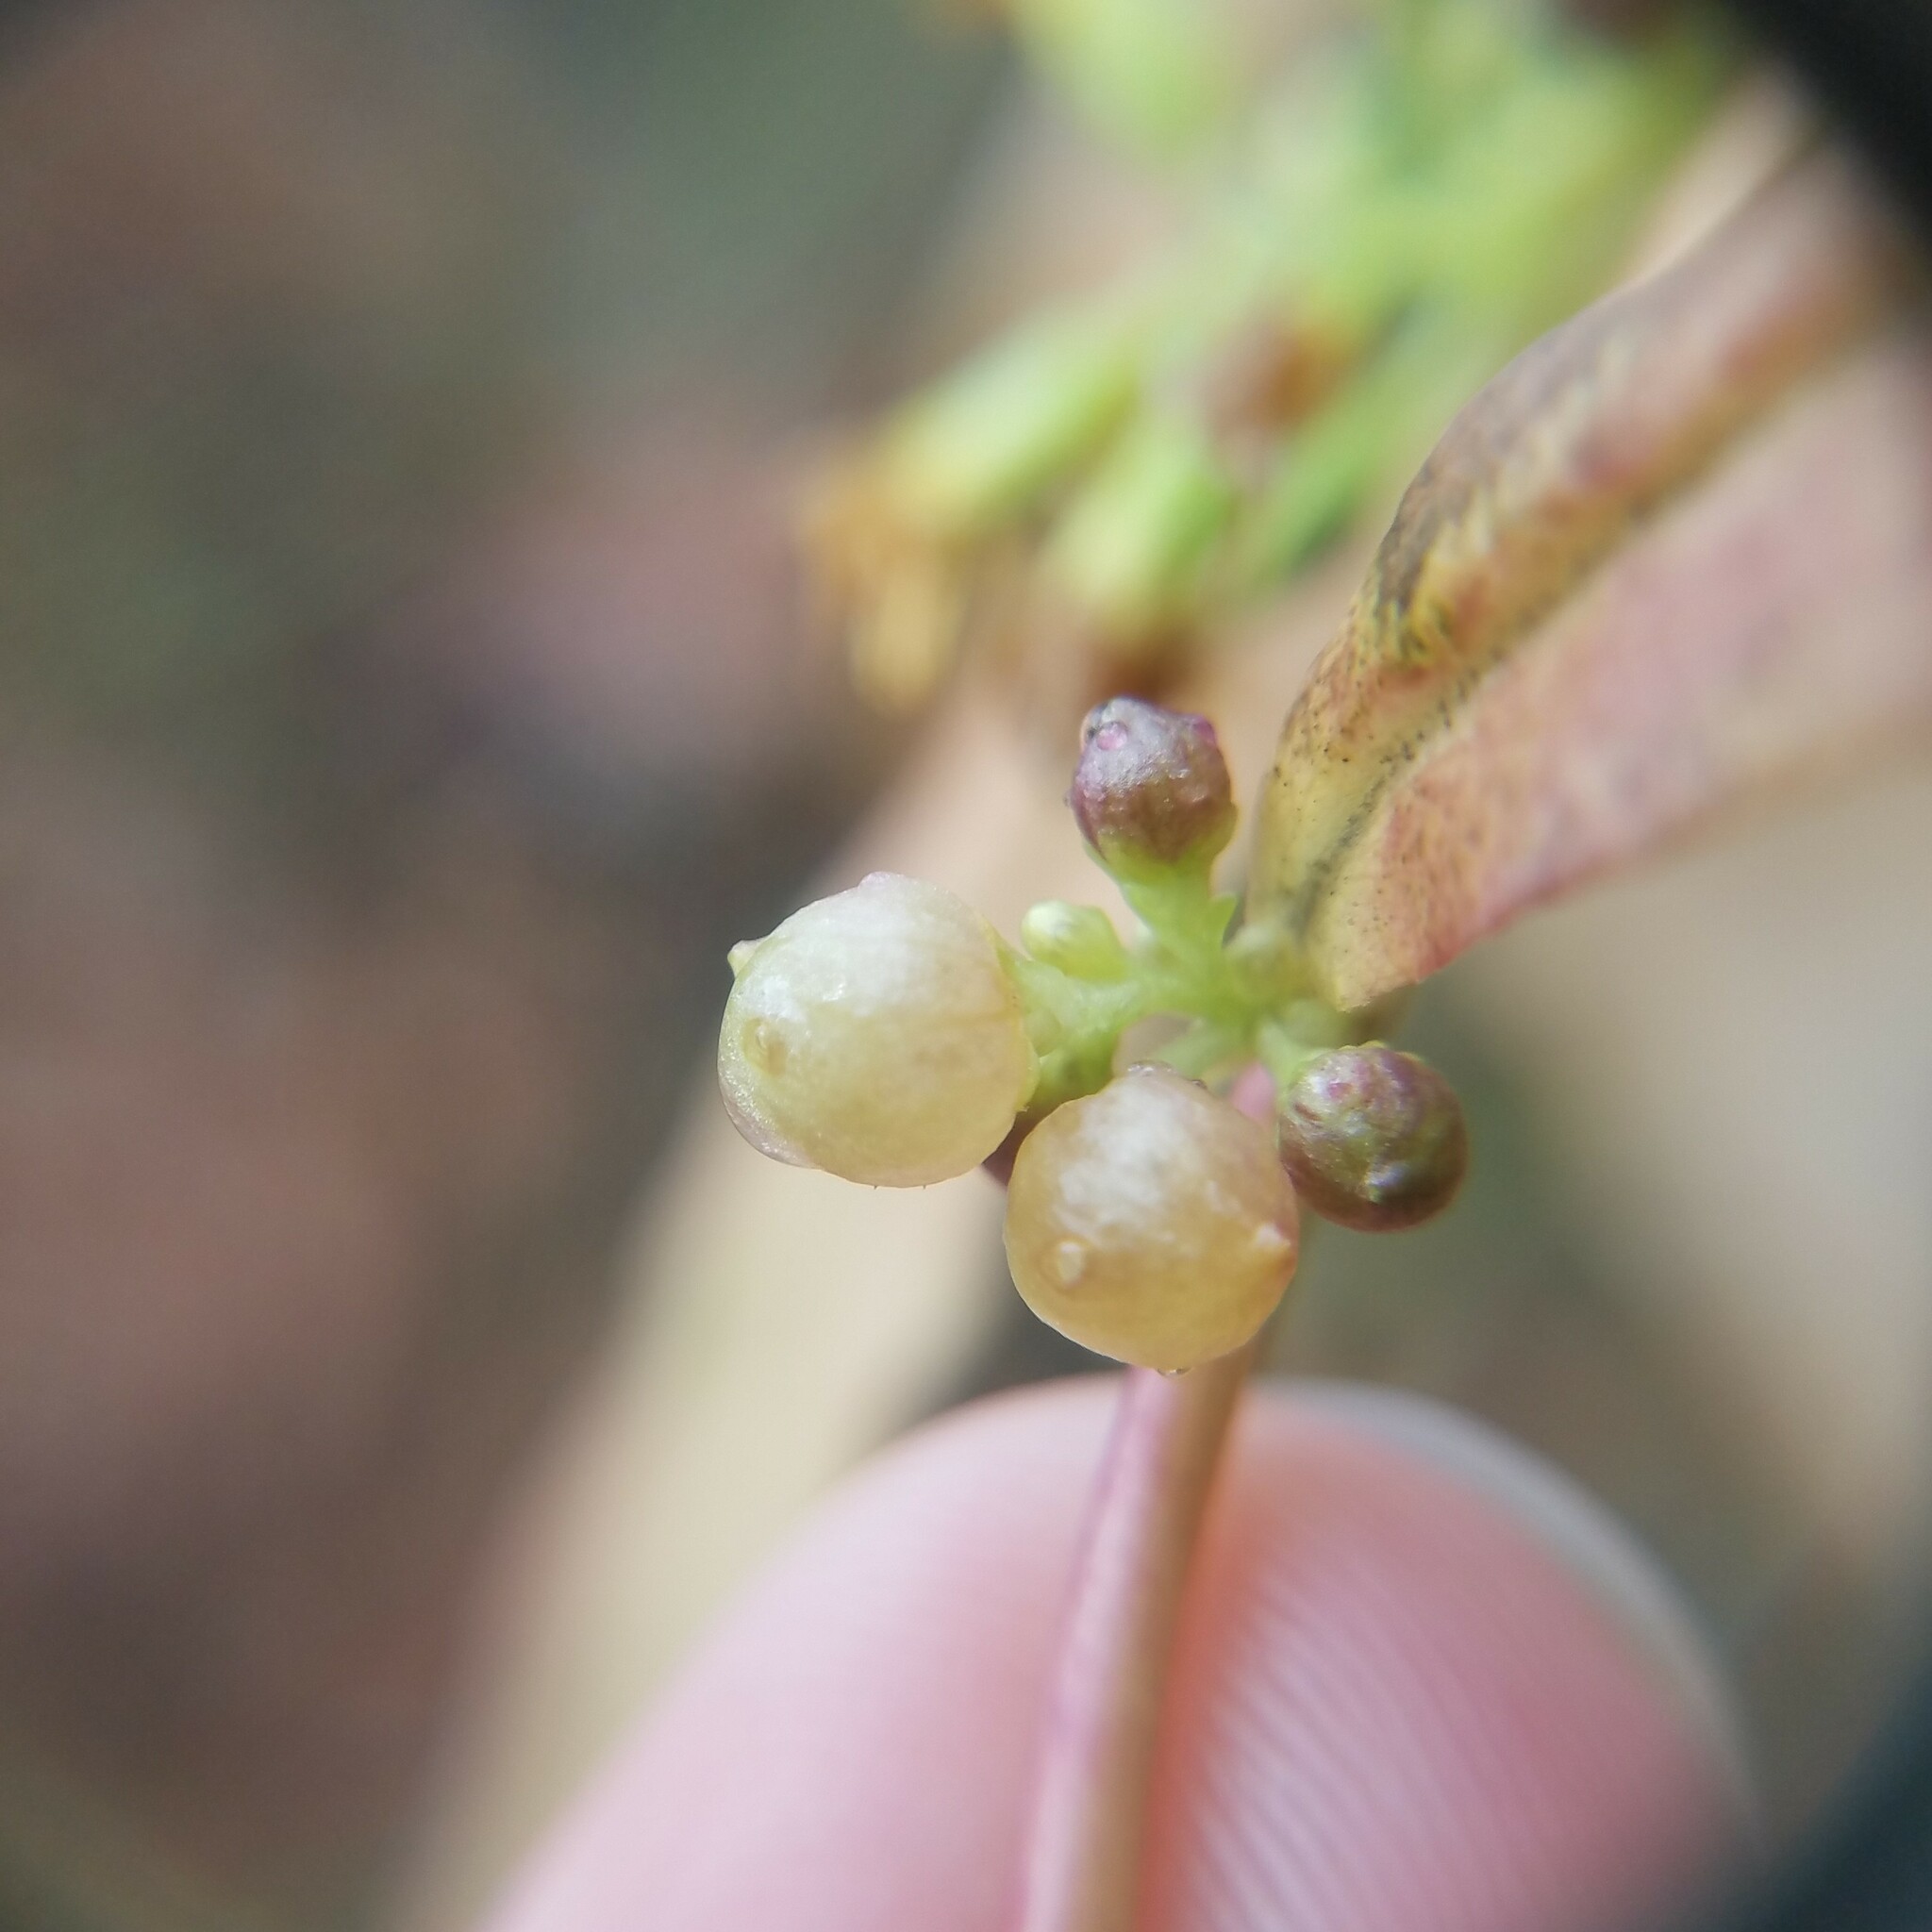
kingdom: Animalia
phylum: Arthropoda
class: Insecta
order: Diptera
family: Cecidomyiidae
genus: Schizomyia
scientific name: Schizomyia racemicola
